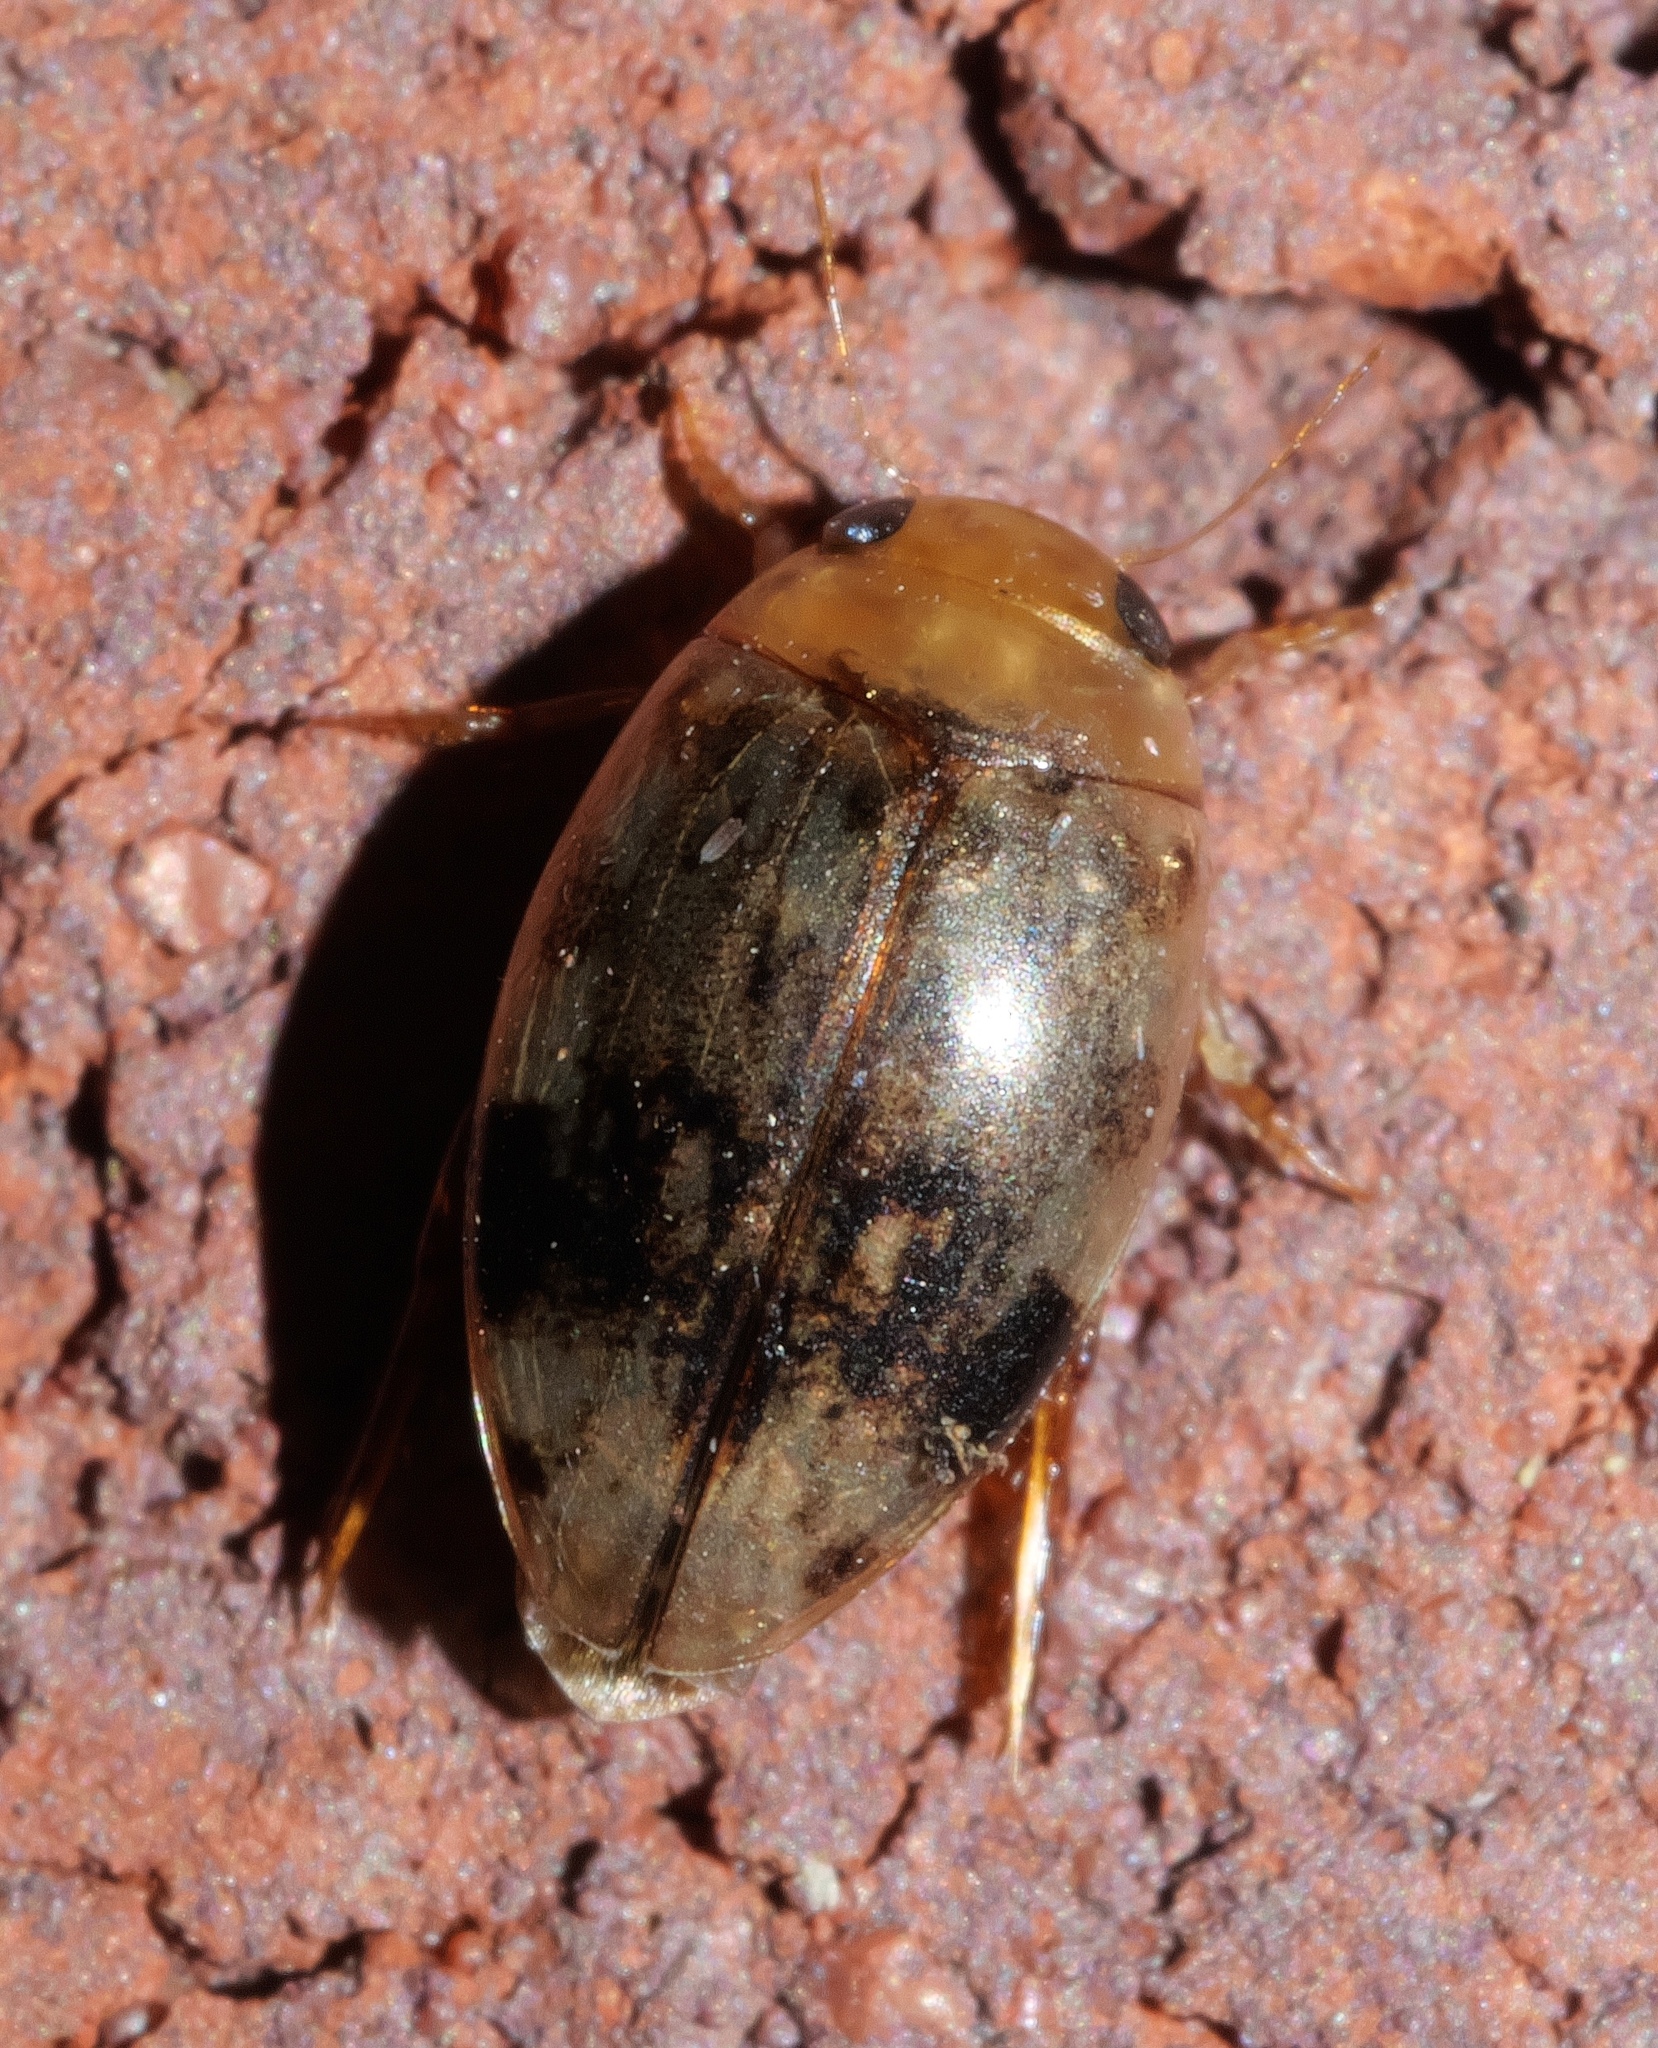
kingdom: Animalia
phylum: Arthropoda
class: Insecta
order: Coleoptera
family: Dytiscidae
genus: Laccophilus
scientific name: Laccophilus fasciatus
